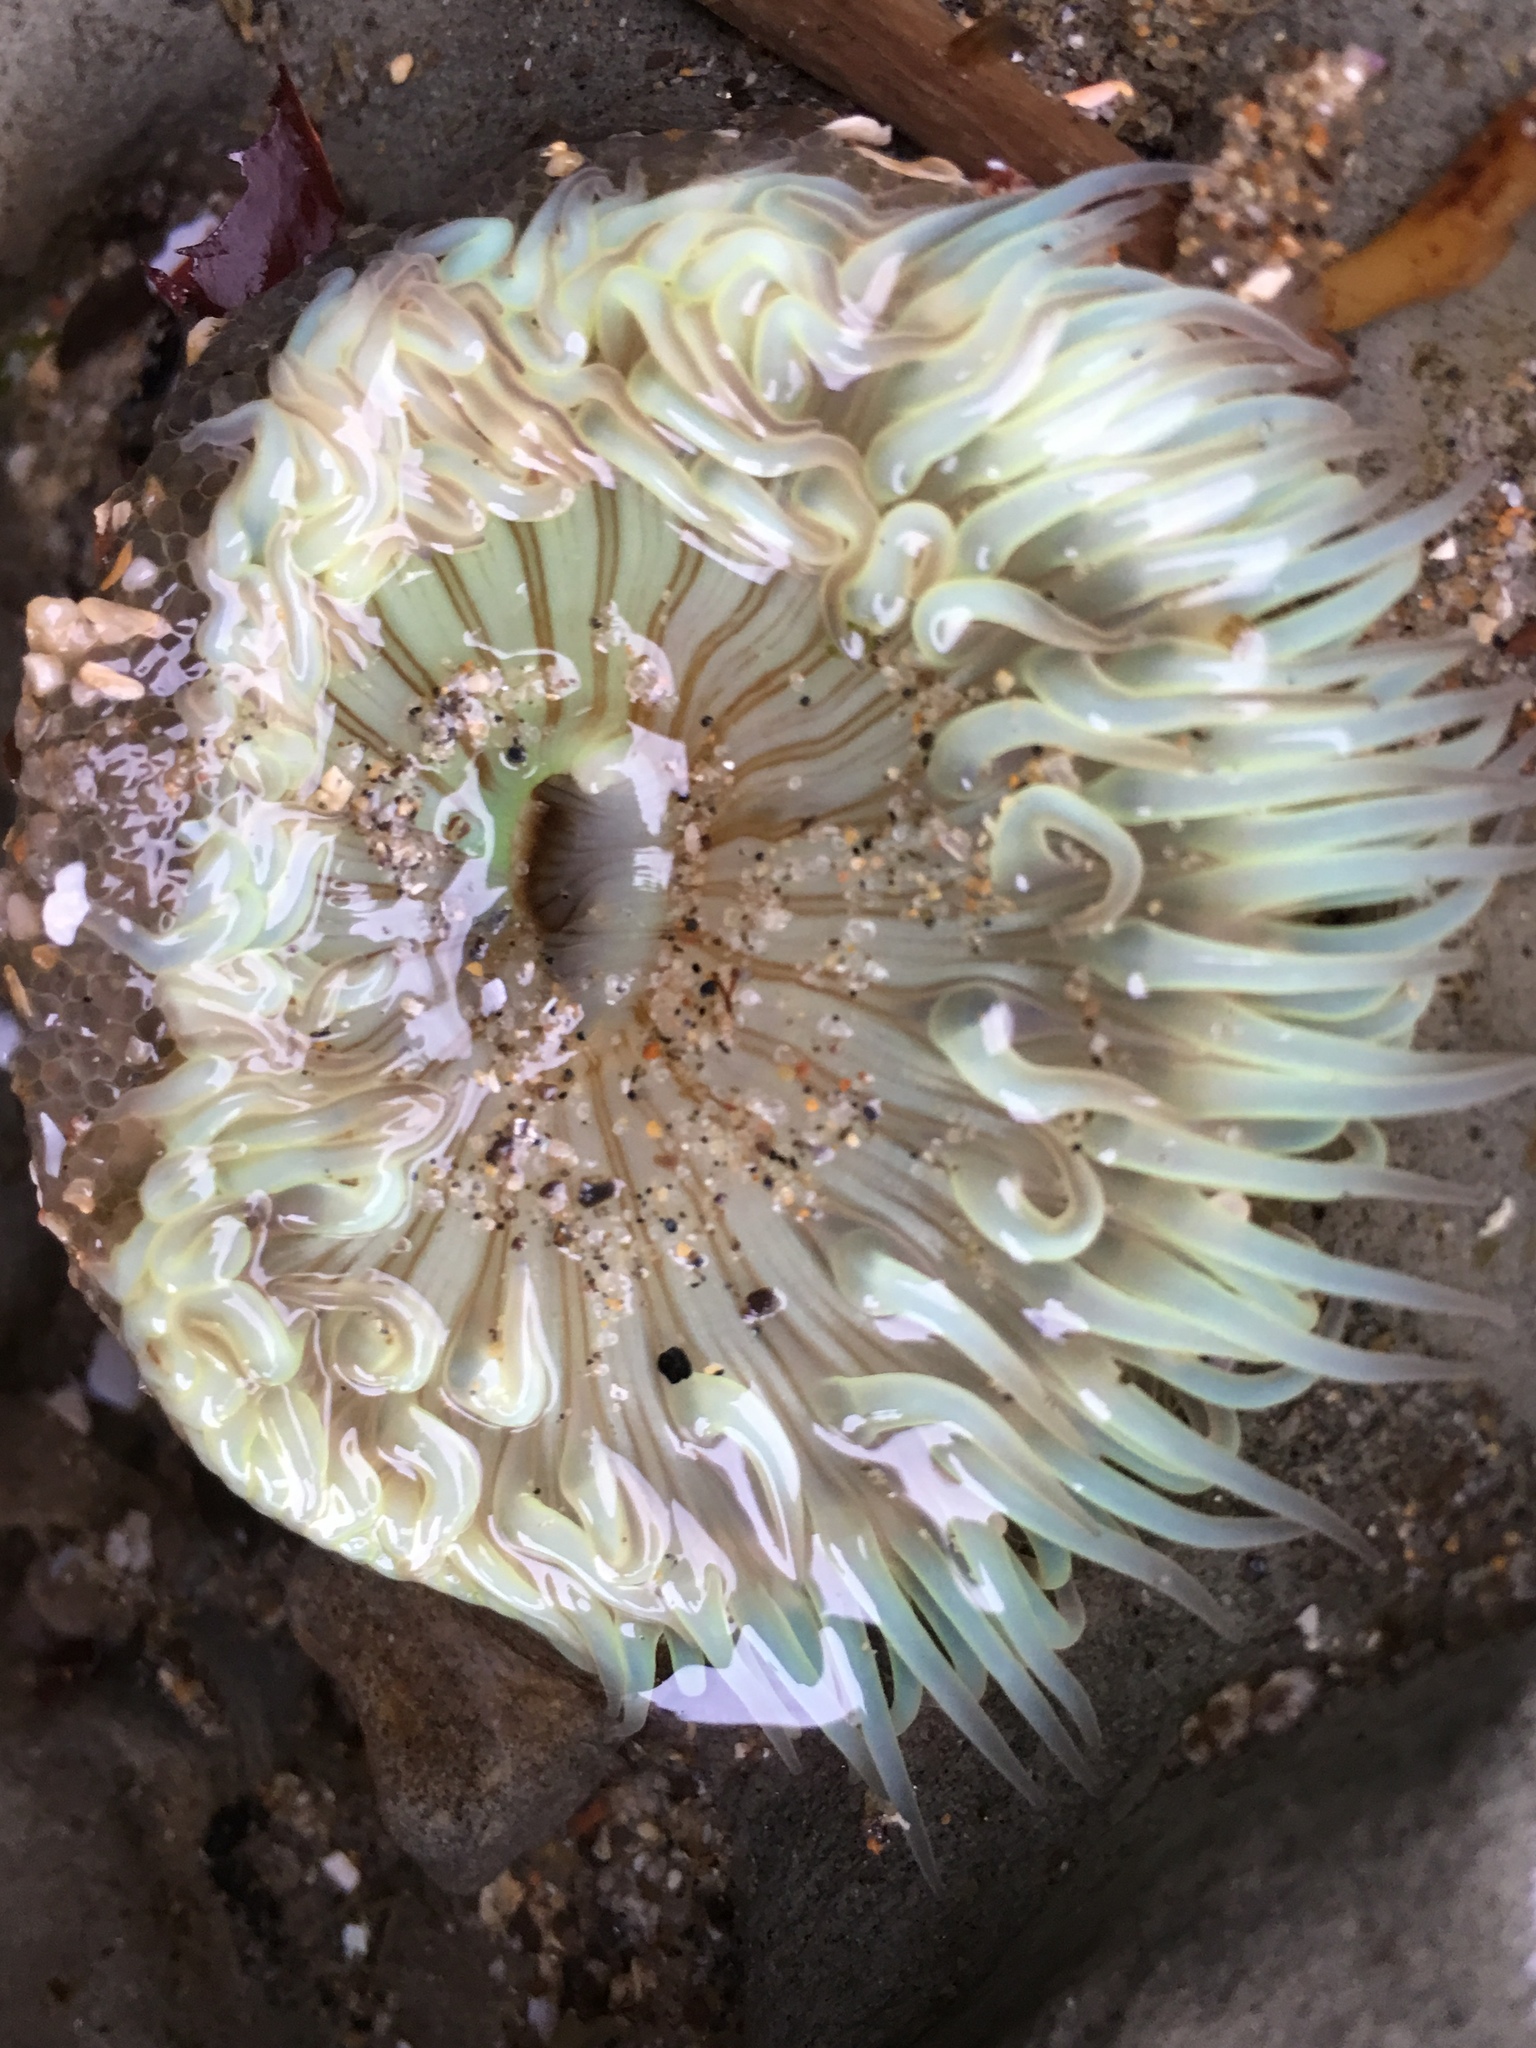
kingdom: Animalia
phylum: Cnidaria
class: Anthozoa
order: Actiniaria
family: Actiniidae
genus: Anthopleura
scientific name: Anthopleura sola
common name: Sun anemone
